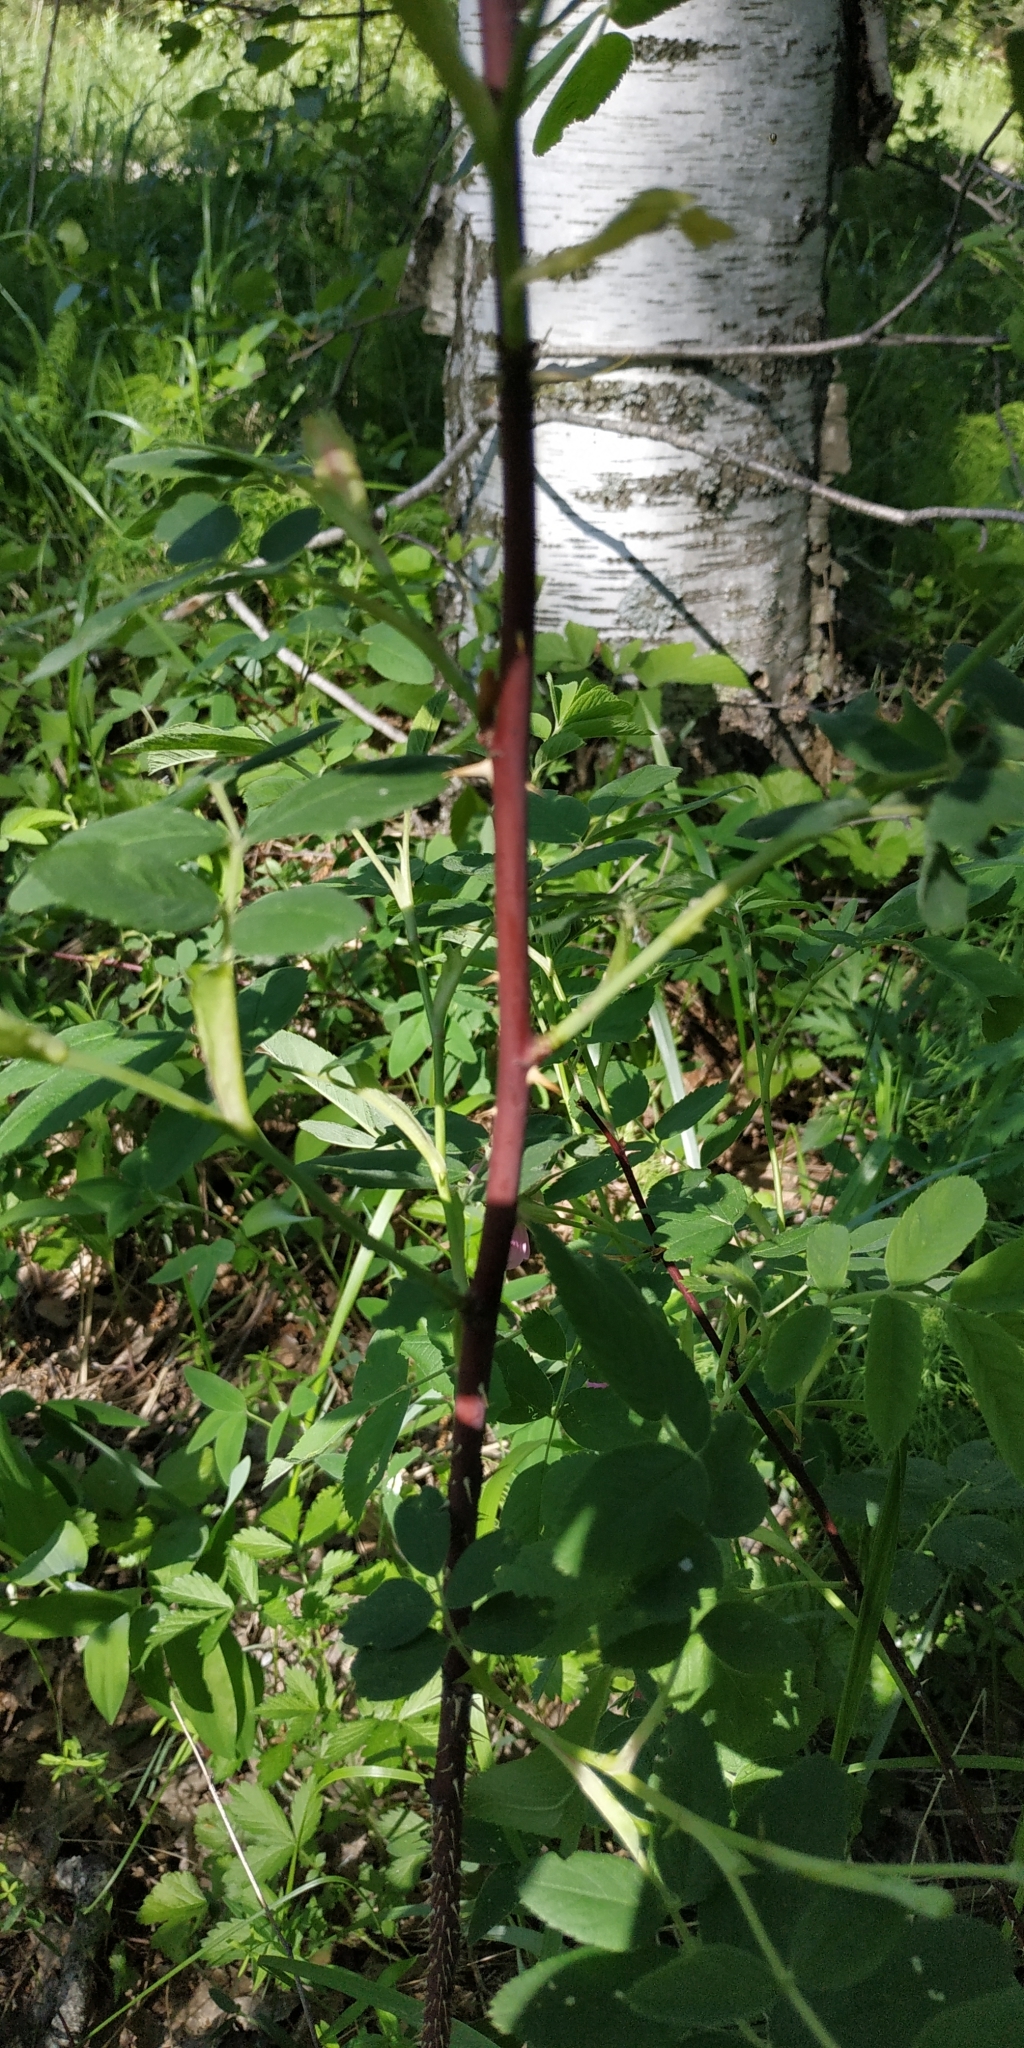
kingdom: Plantae
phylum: Tracheophyta
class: Magnoliopsida
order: Rosales
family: Rosaceae
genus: Rosa
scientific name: Rosa majalis
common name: Cinnamon rose
